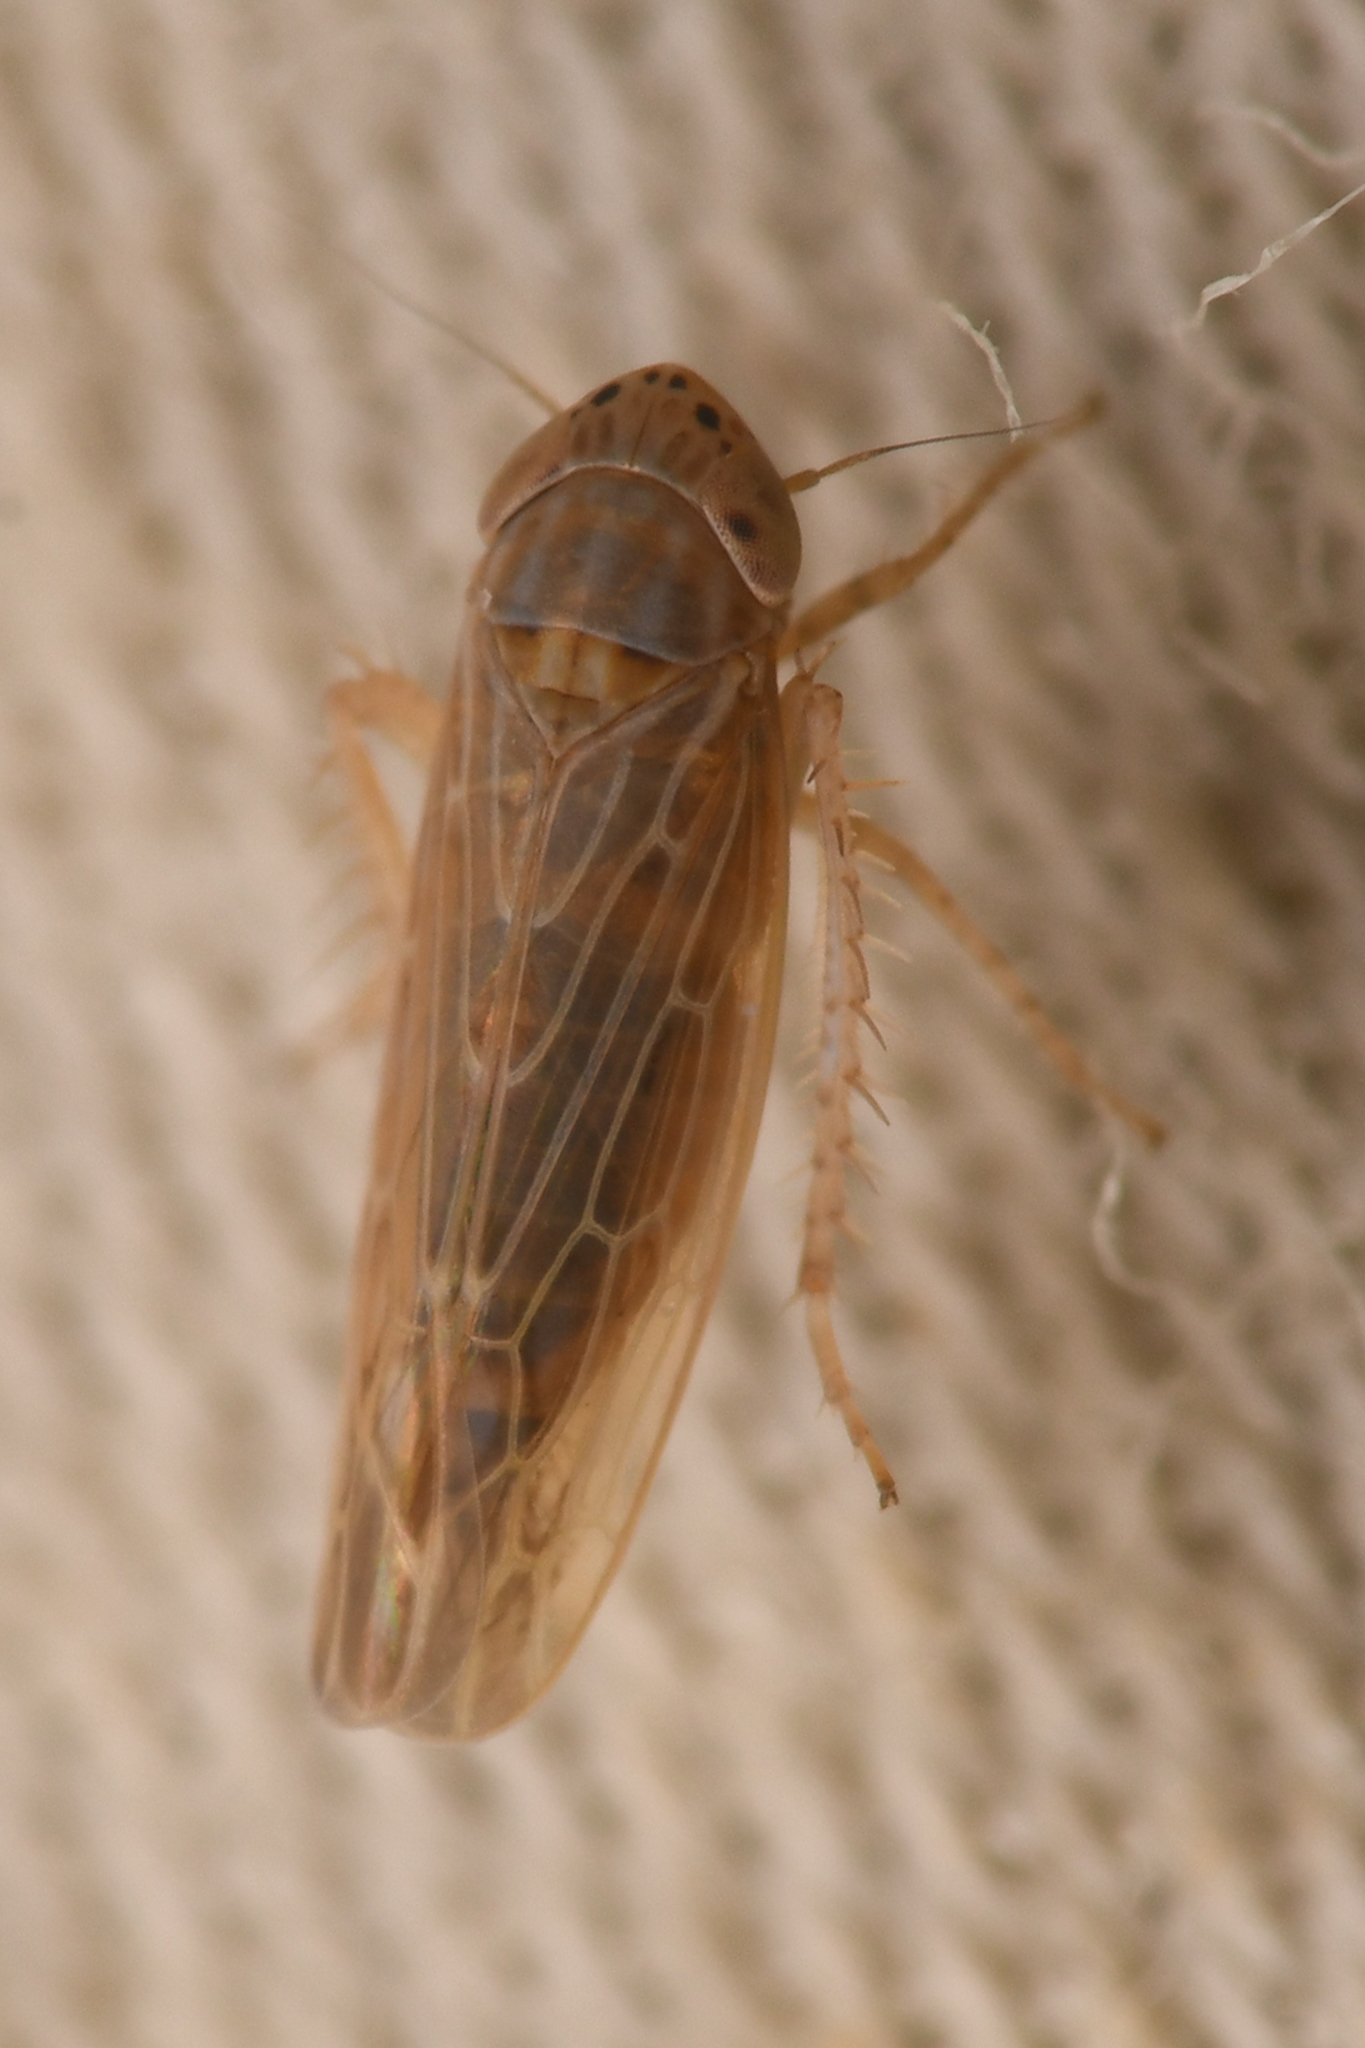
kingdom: Animalia
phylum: Arthropoda
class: Insecta
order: Hemiptera
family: Cicadellidae
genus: Graminella
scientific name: Graminella sonora
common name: Lesser lawn leafhopper
